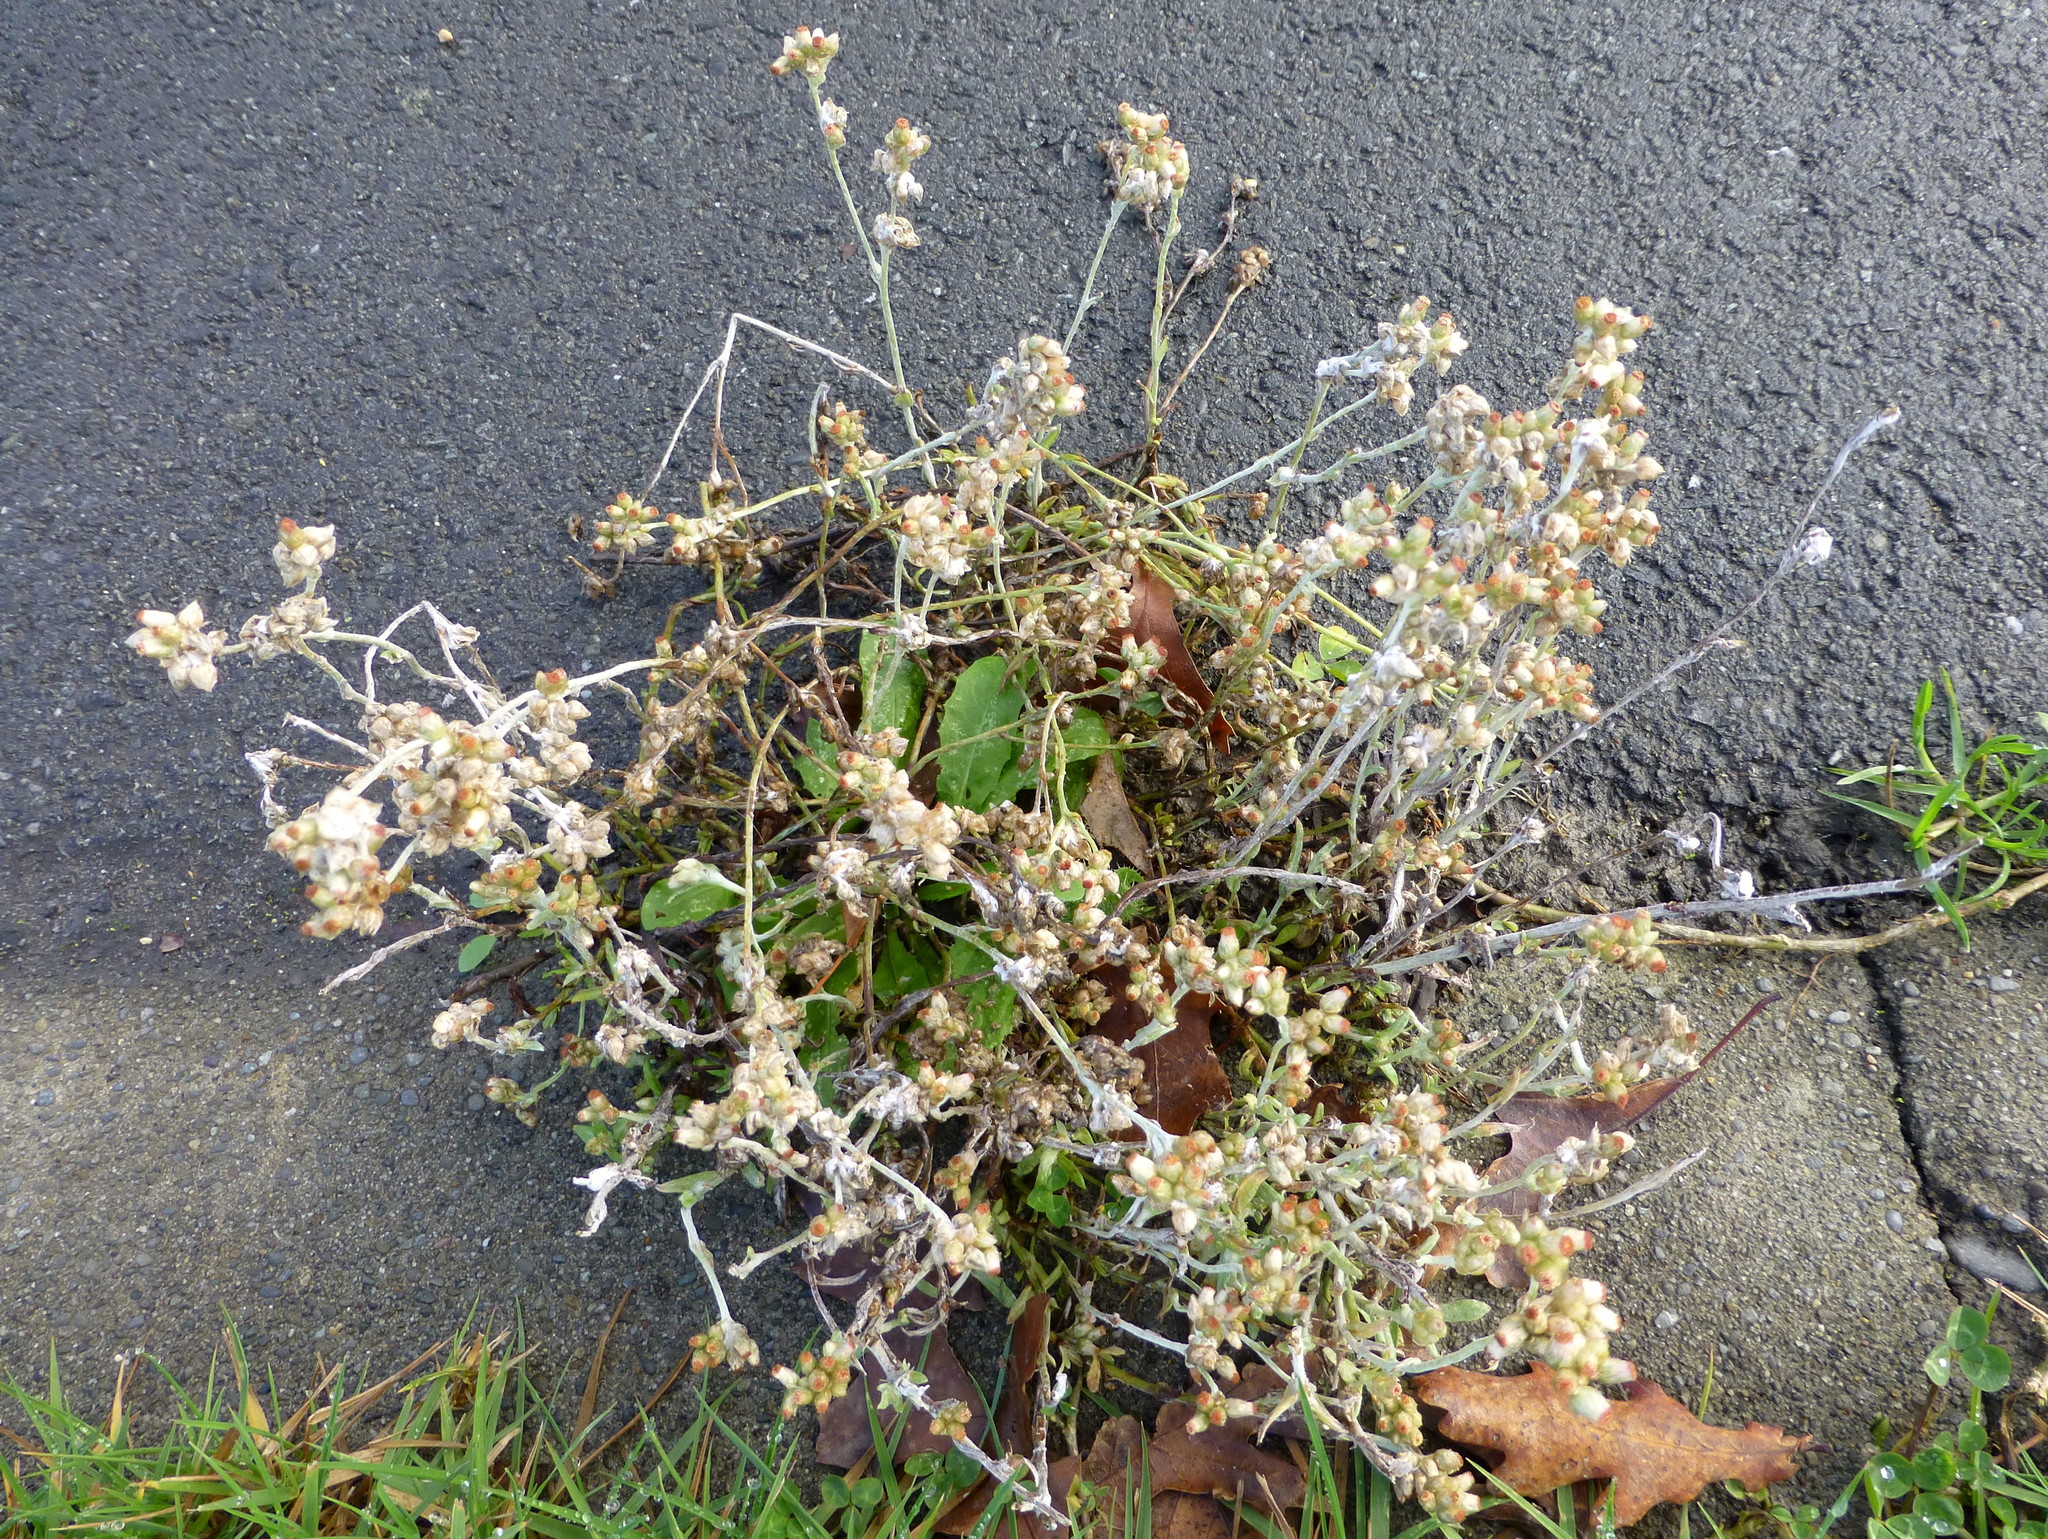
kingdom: Plantae
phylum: Tracheophyta
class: Magnoliopsida
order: Asterales
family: Asteraceae
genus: Helichrysum
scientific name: Helichrysum luteoalbum
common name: Daisy
